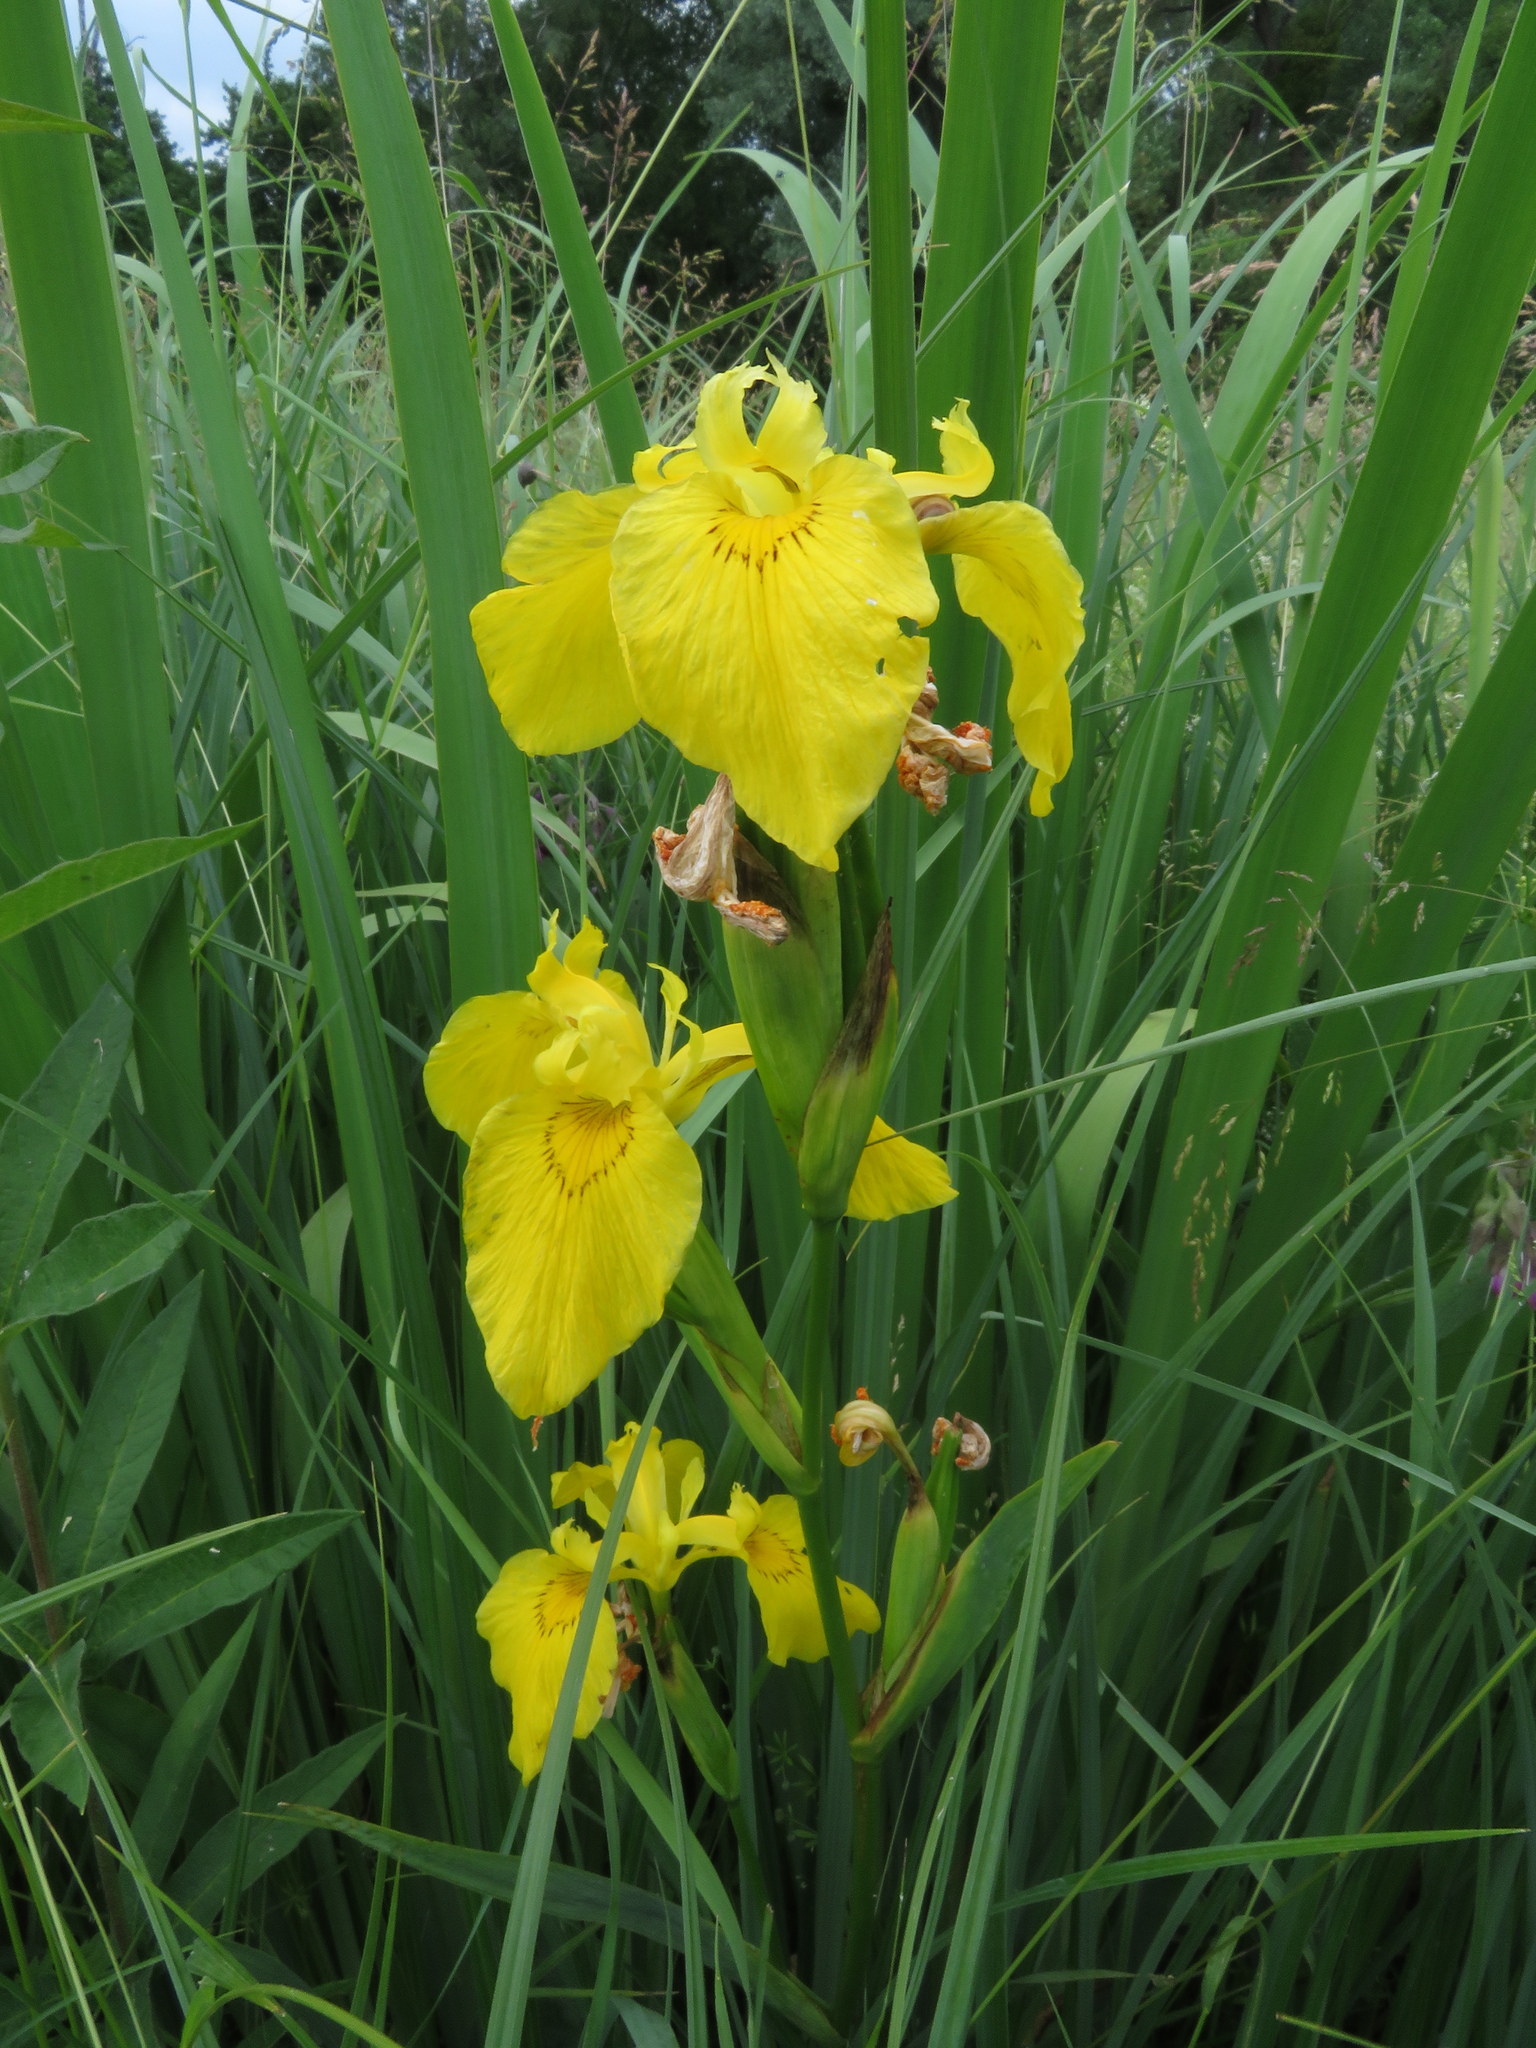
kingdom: Plantae
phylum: Tracheophyta
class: Liliopsida
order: Asparagales
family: Iridaceae
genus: Iris
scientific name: Iris pseudacorus
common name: Yellow flag
